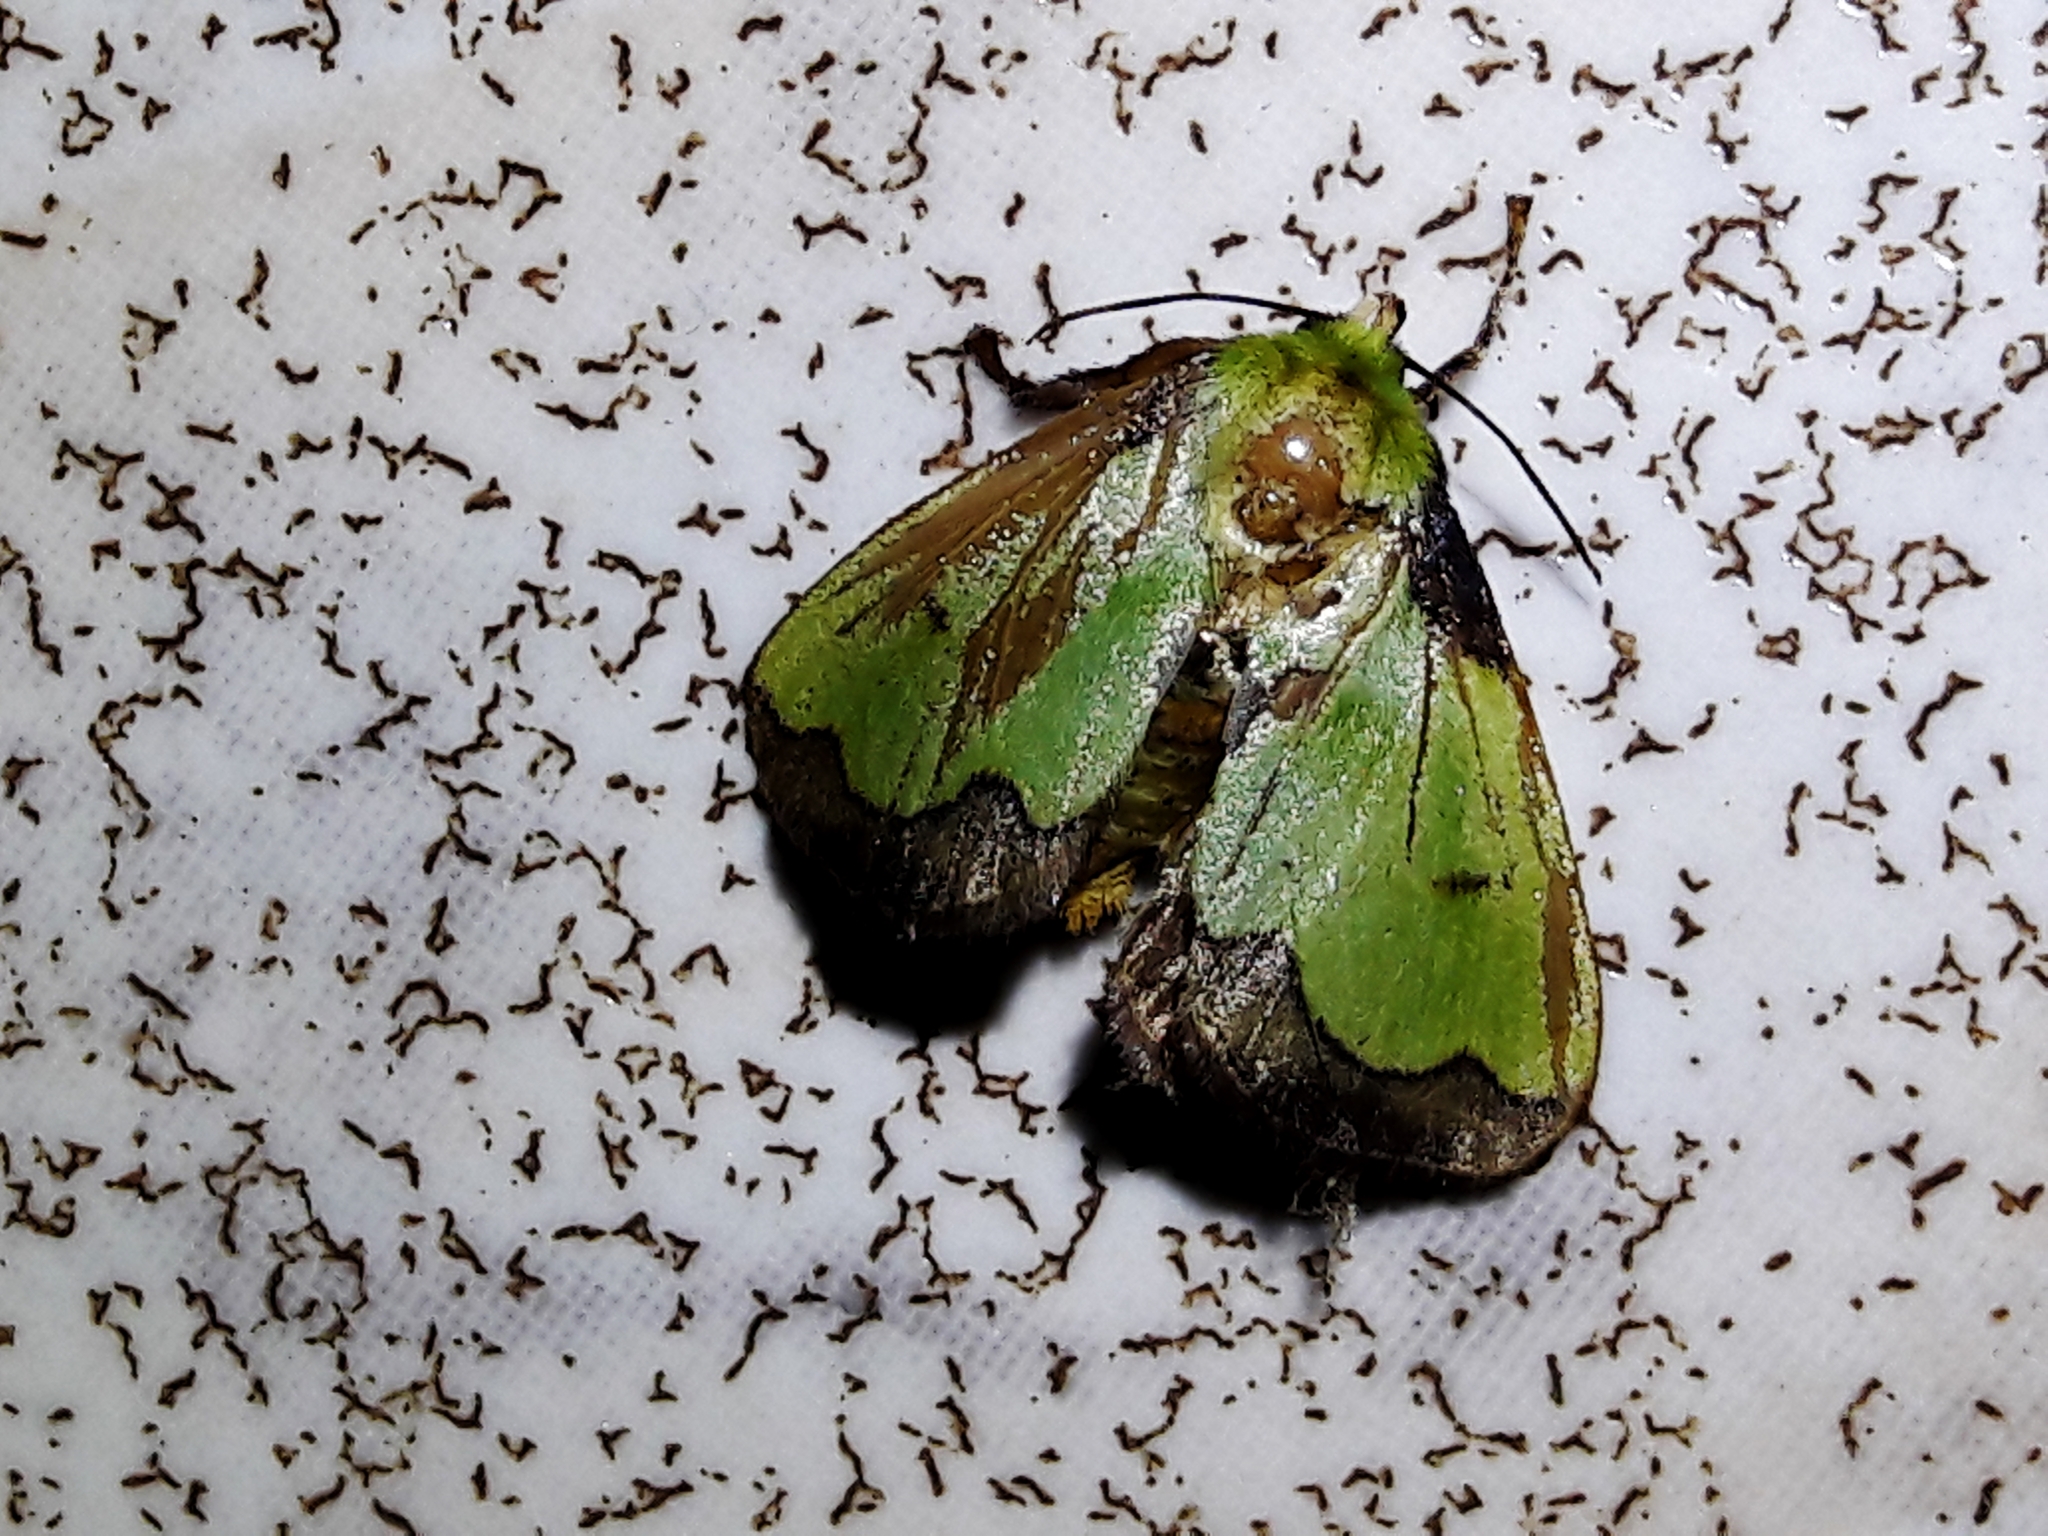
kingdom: Animalia
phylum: Arthropoda
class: Insecta
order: Lepidoptera
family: Limacodidae
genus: Parasa
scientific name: Parasa flora
